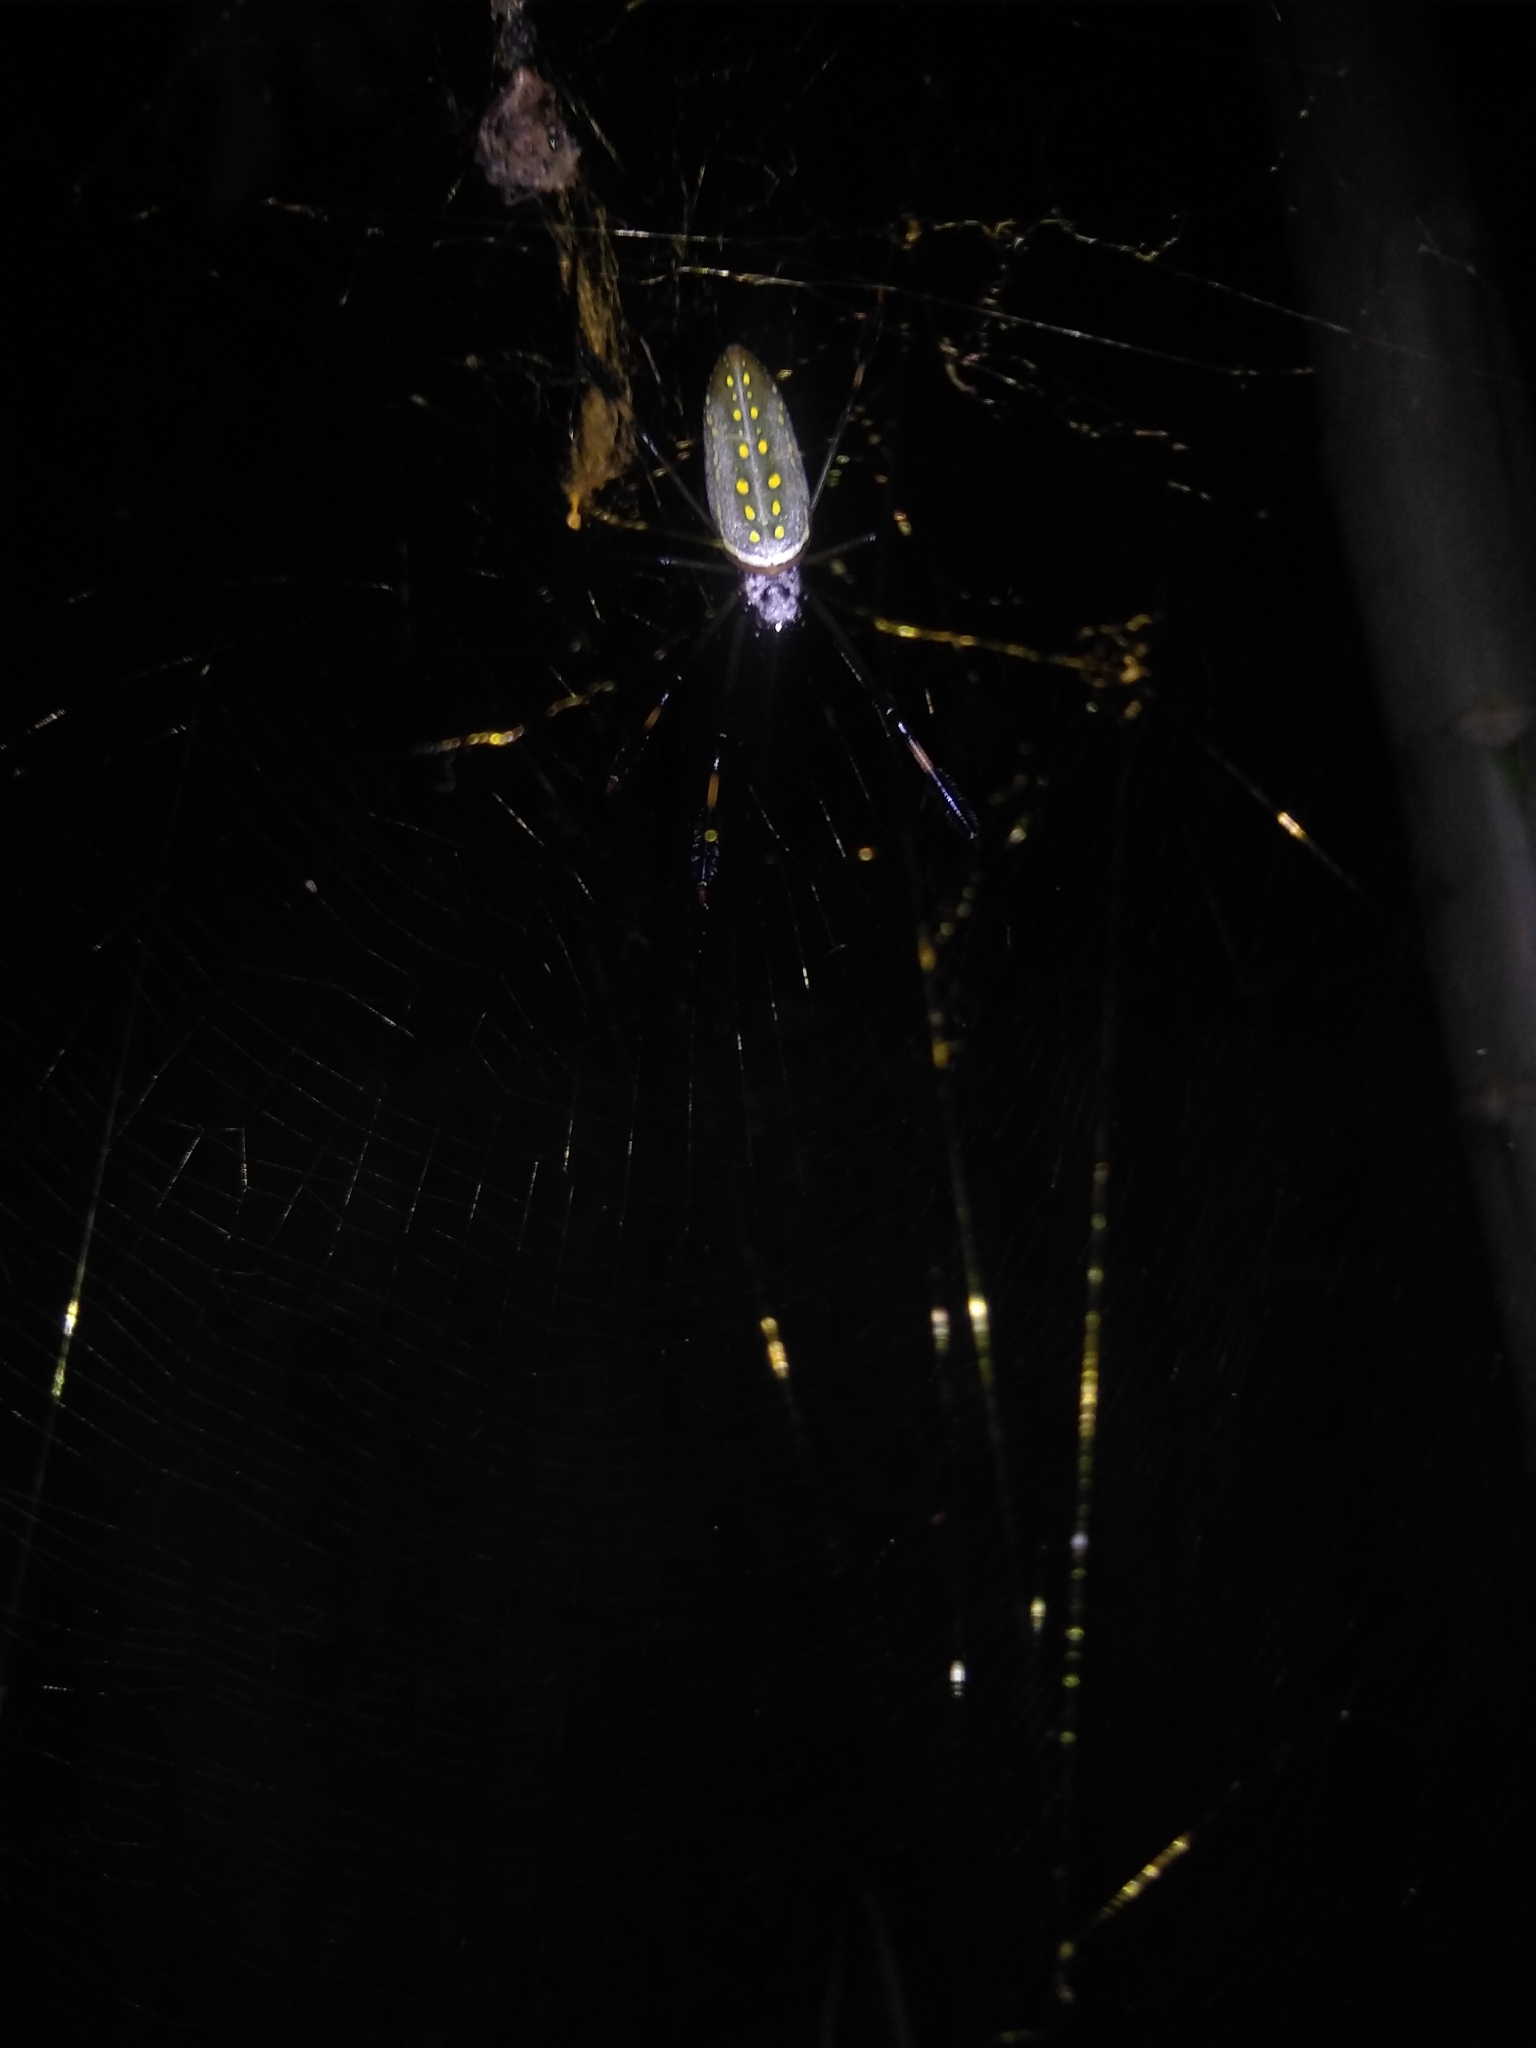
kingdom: Animalia
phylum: Arthropoda
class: Arachnida
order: Araneae
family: Araneidae
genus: Trichonephila
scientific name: Trichonephila clavipes
